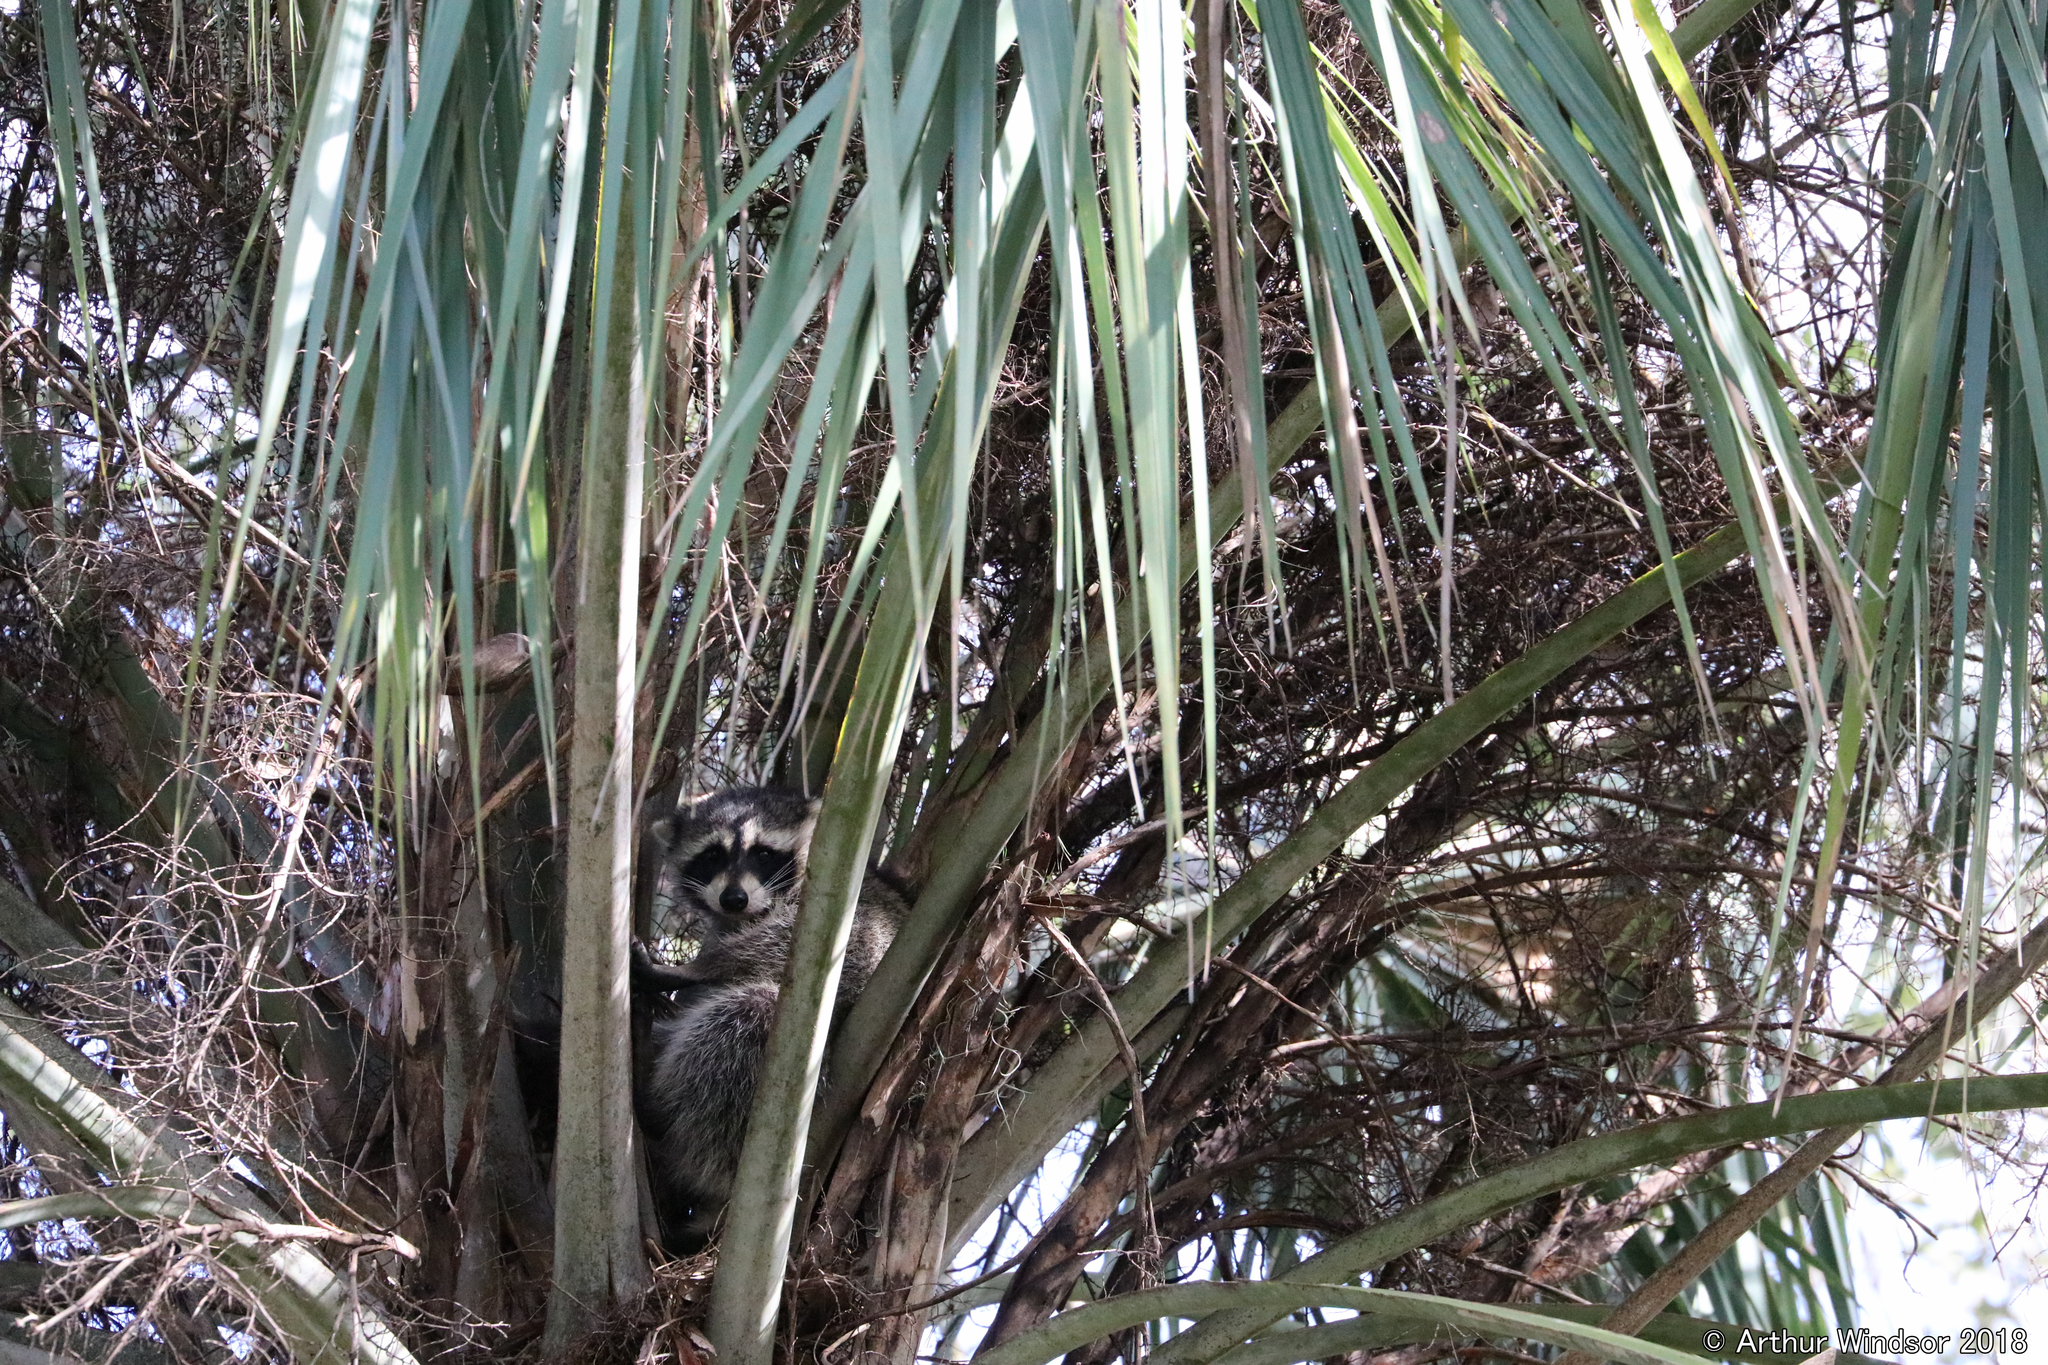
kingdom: Animalia
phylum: Chordata
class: Mammalia
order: Carnivora
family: Procyonidae
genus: Procyon
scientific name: Procyon lotor
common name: Raccoon
